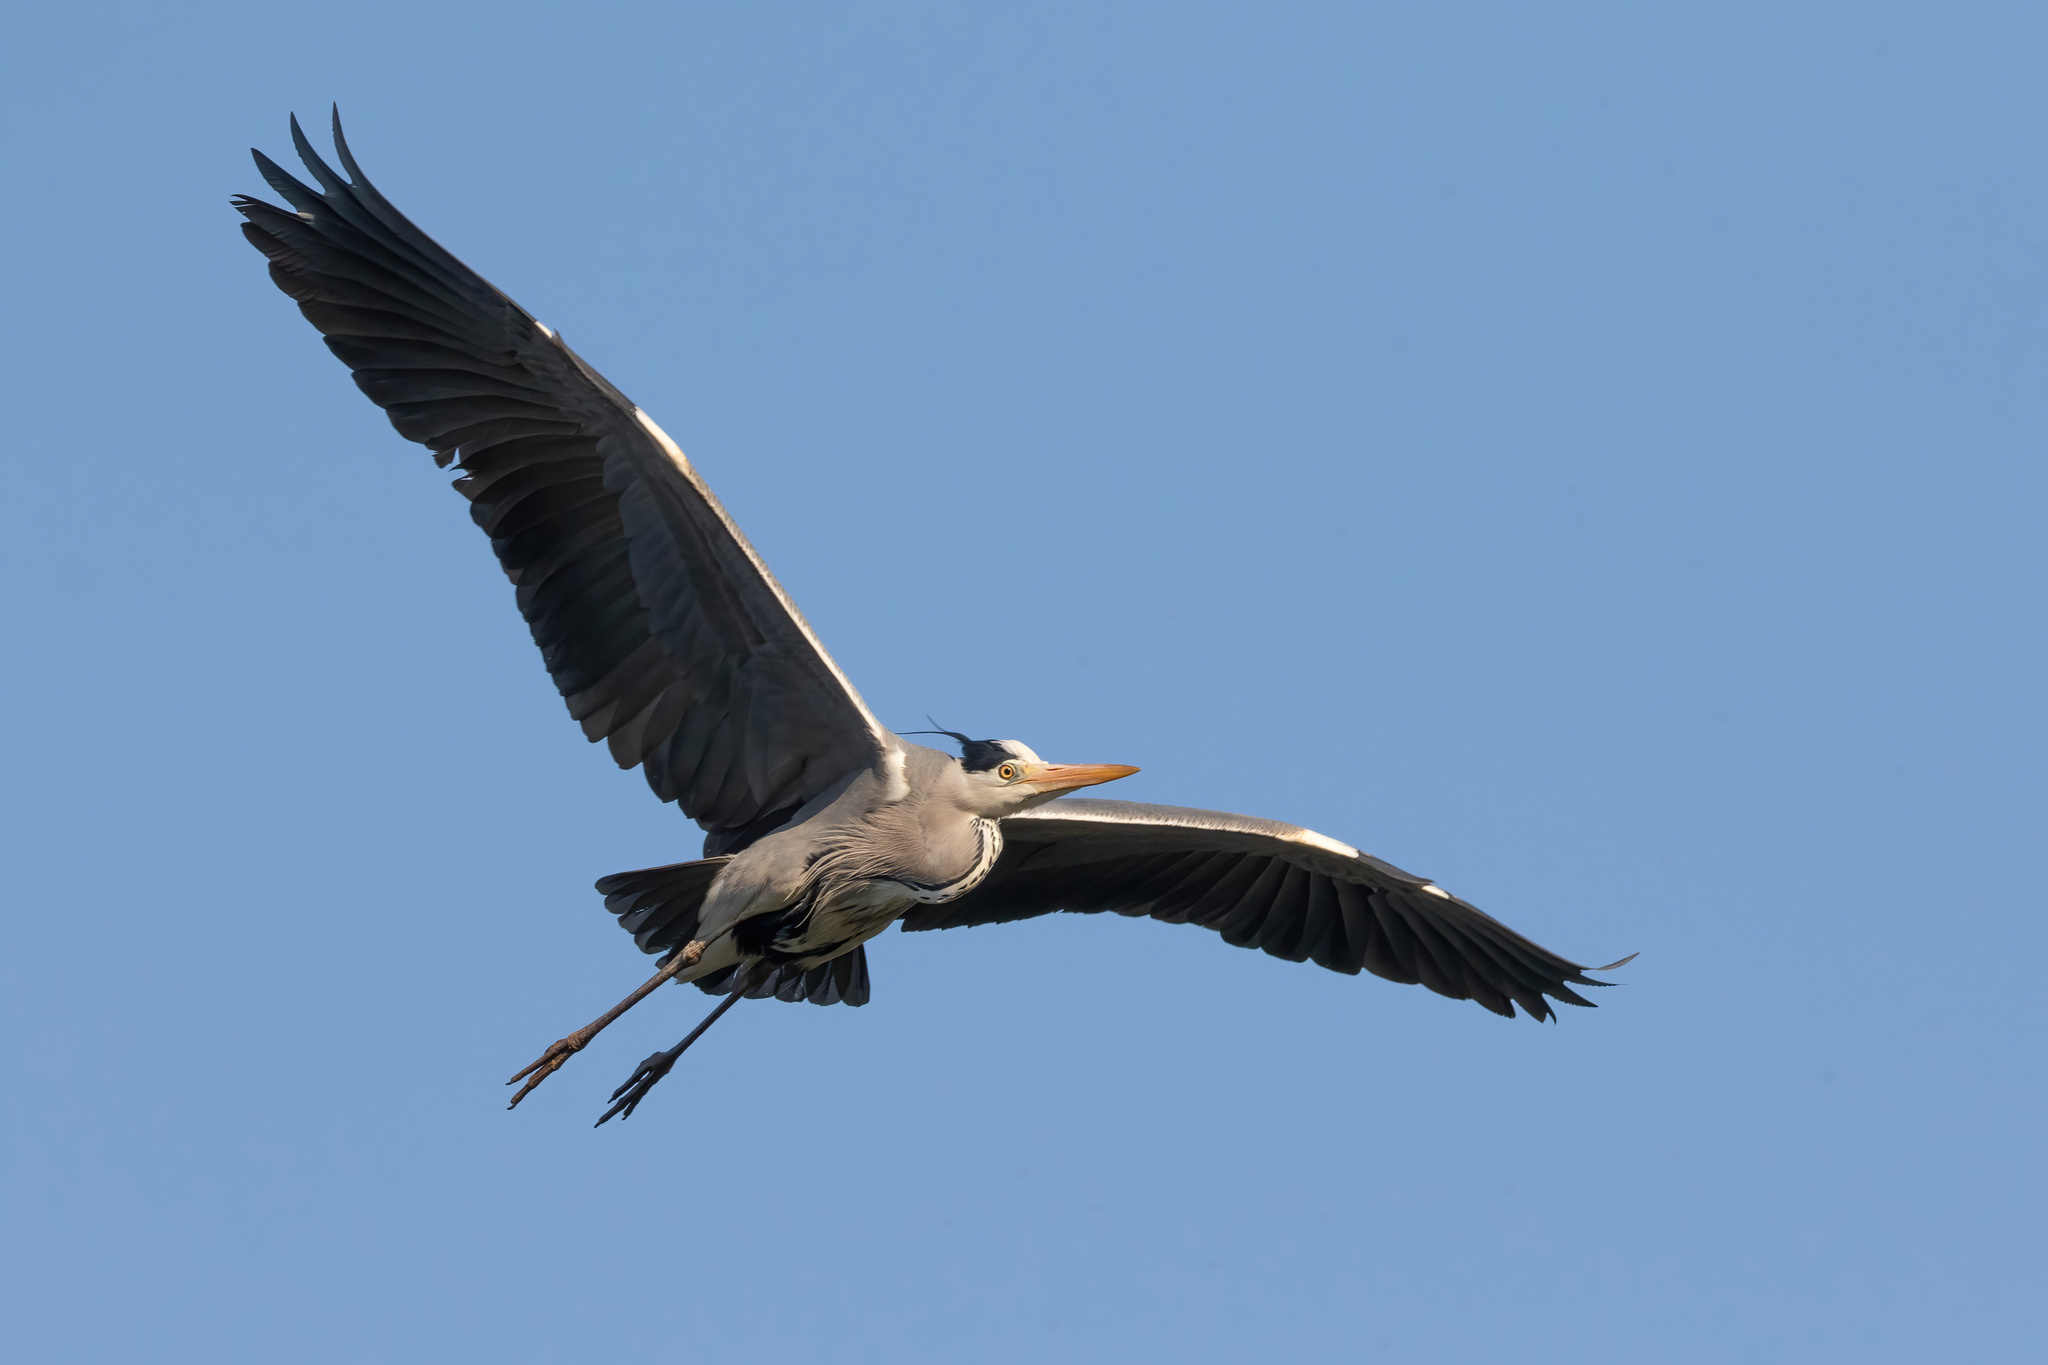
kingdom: Animalia
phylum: Chordata
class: Aves
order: Pelecaniformes
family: Ardeidae
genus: Ardea
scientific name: Ardea cinerea
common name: Grey heron
